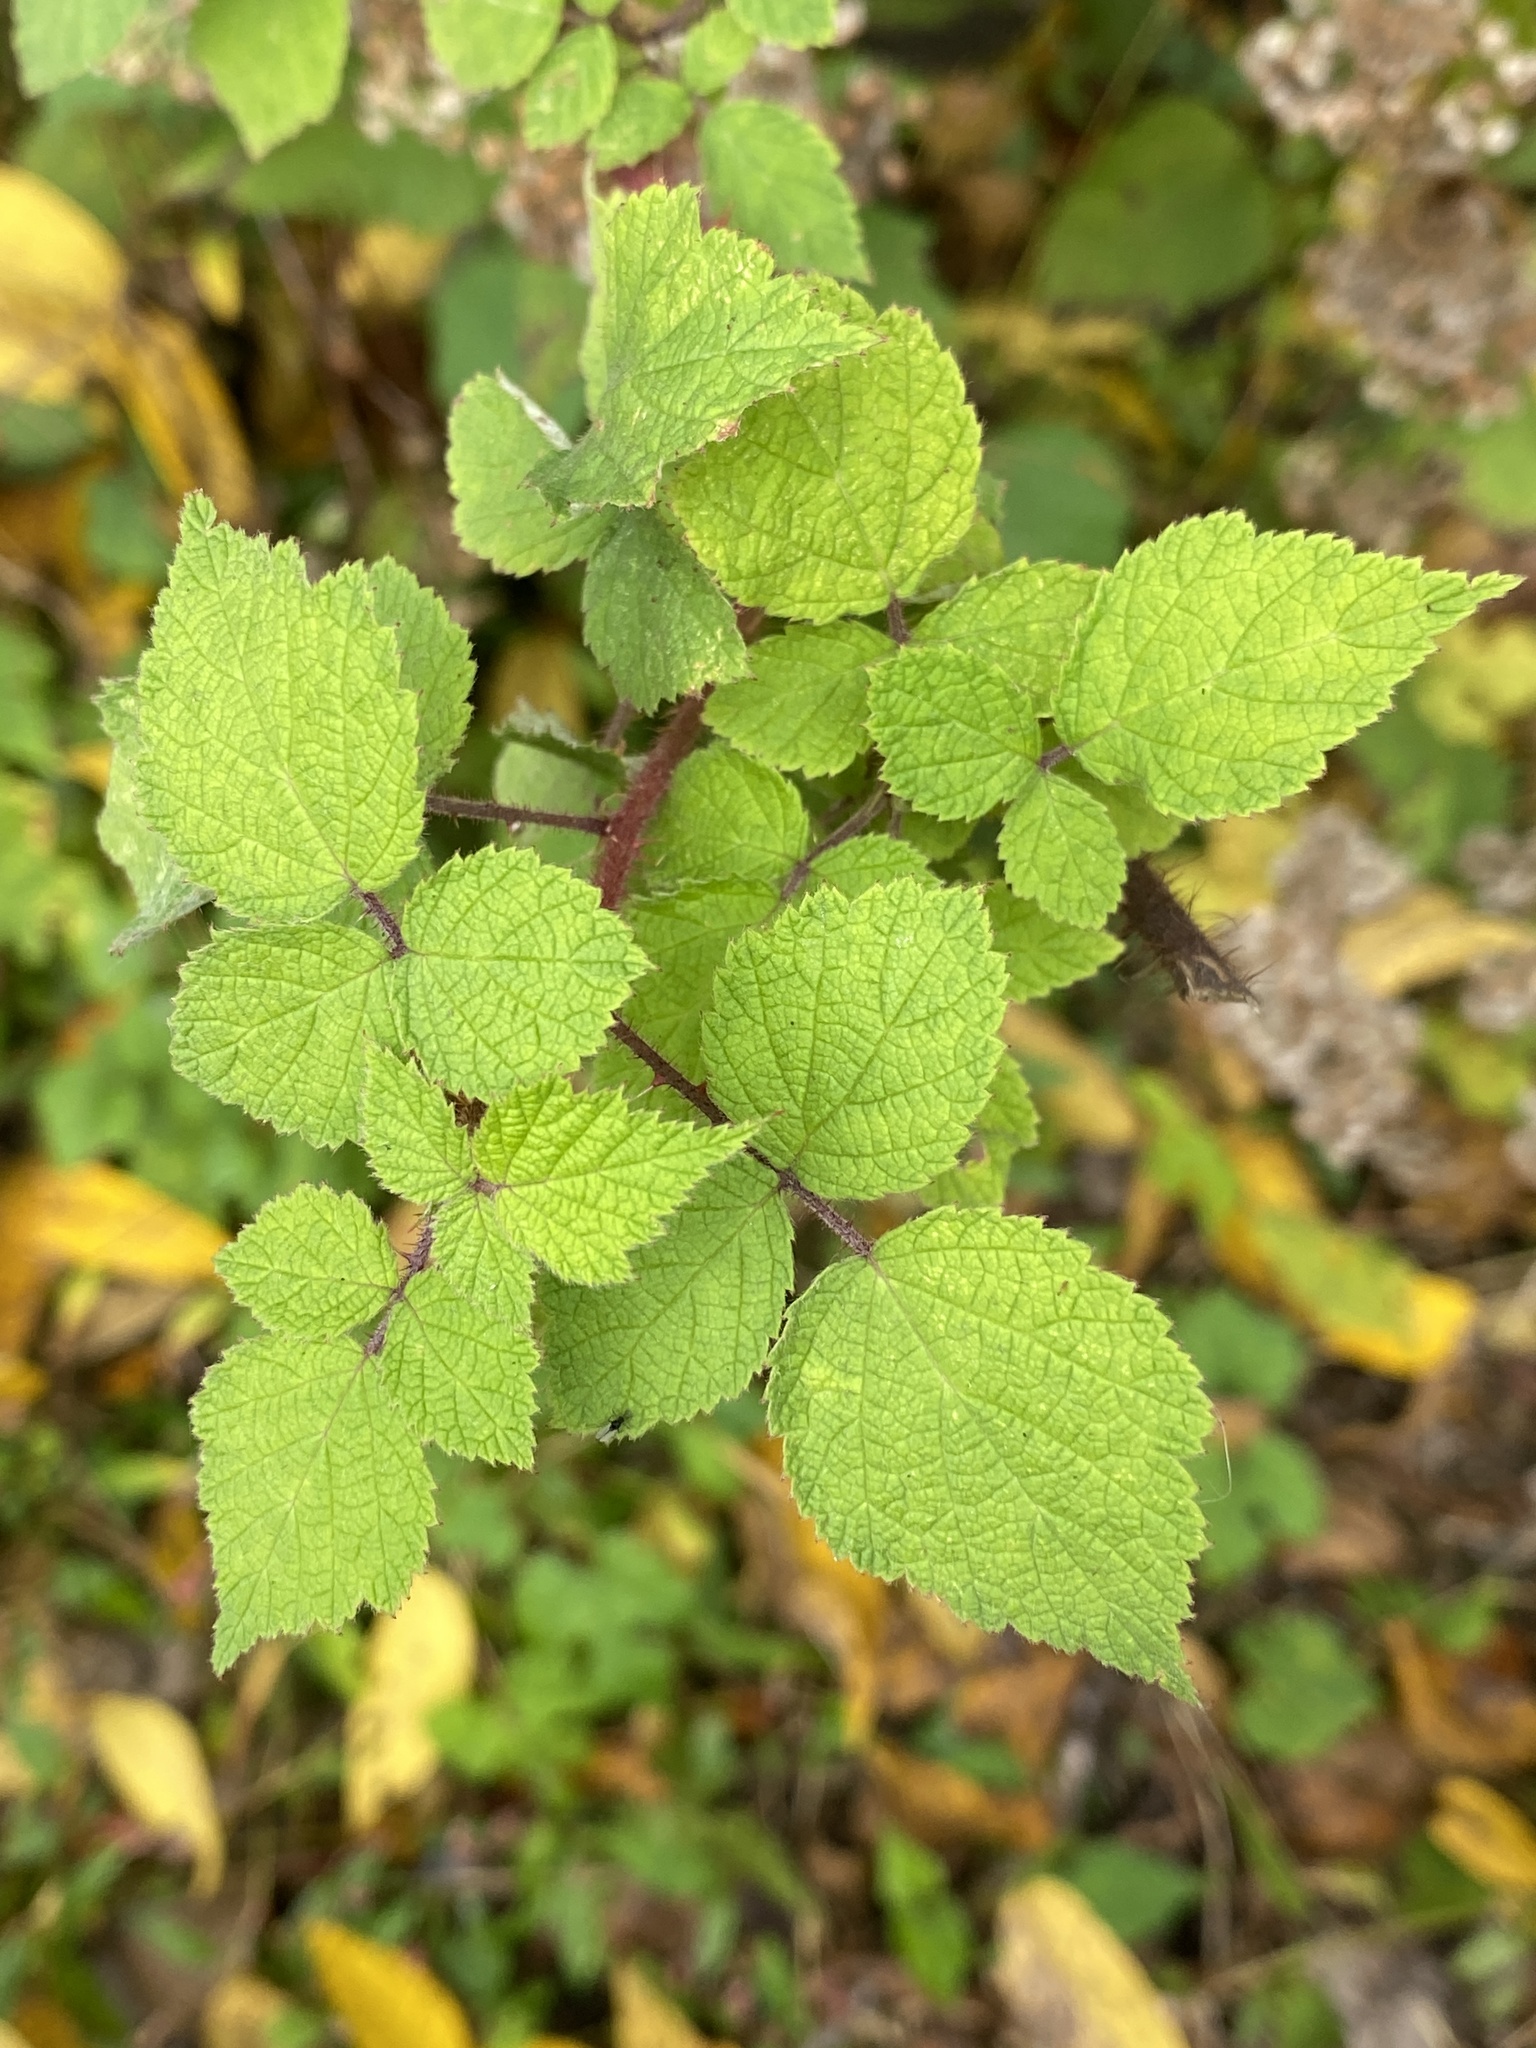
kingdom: Plantae
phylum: Tracheophyta
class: Magnoliopsida
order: Rosales
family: Rosaceae
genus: Rubus
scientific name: Rubus phoenicolasius
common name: Japanese wineberry
